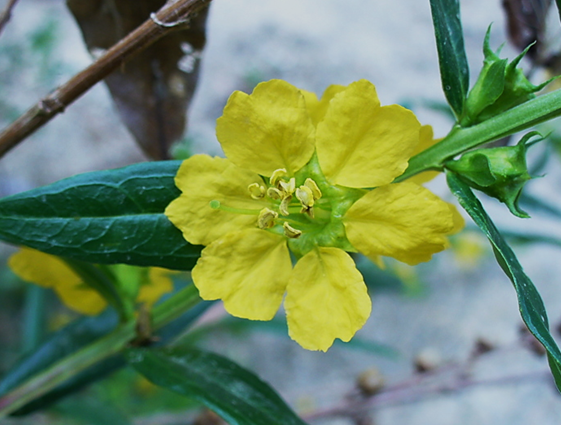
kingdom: Plantae
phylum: Tracheophyta
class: Magnoliopsida
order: Myrtales
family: Lythraceae
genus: Heimia
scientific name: Heimia salicifolia
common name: Willow-leaf heimia
